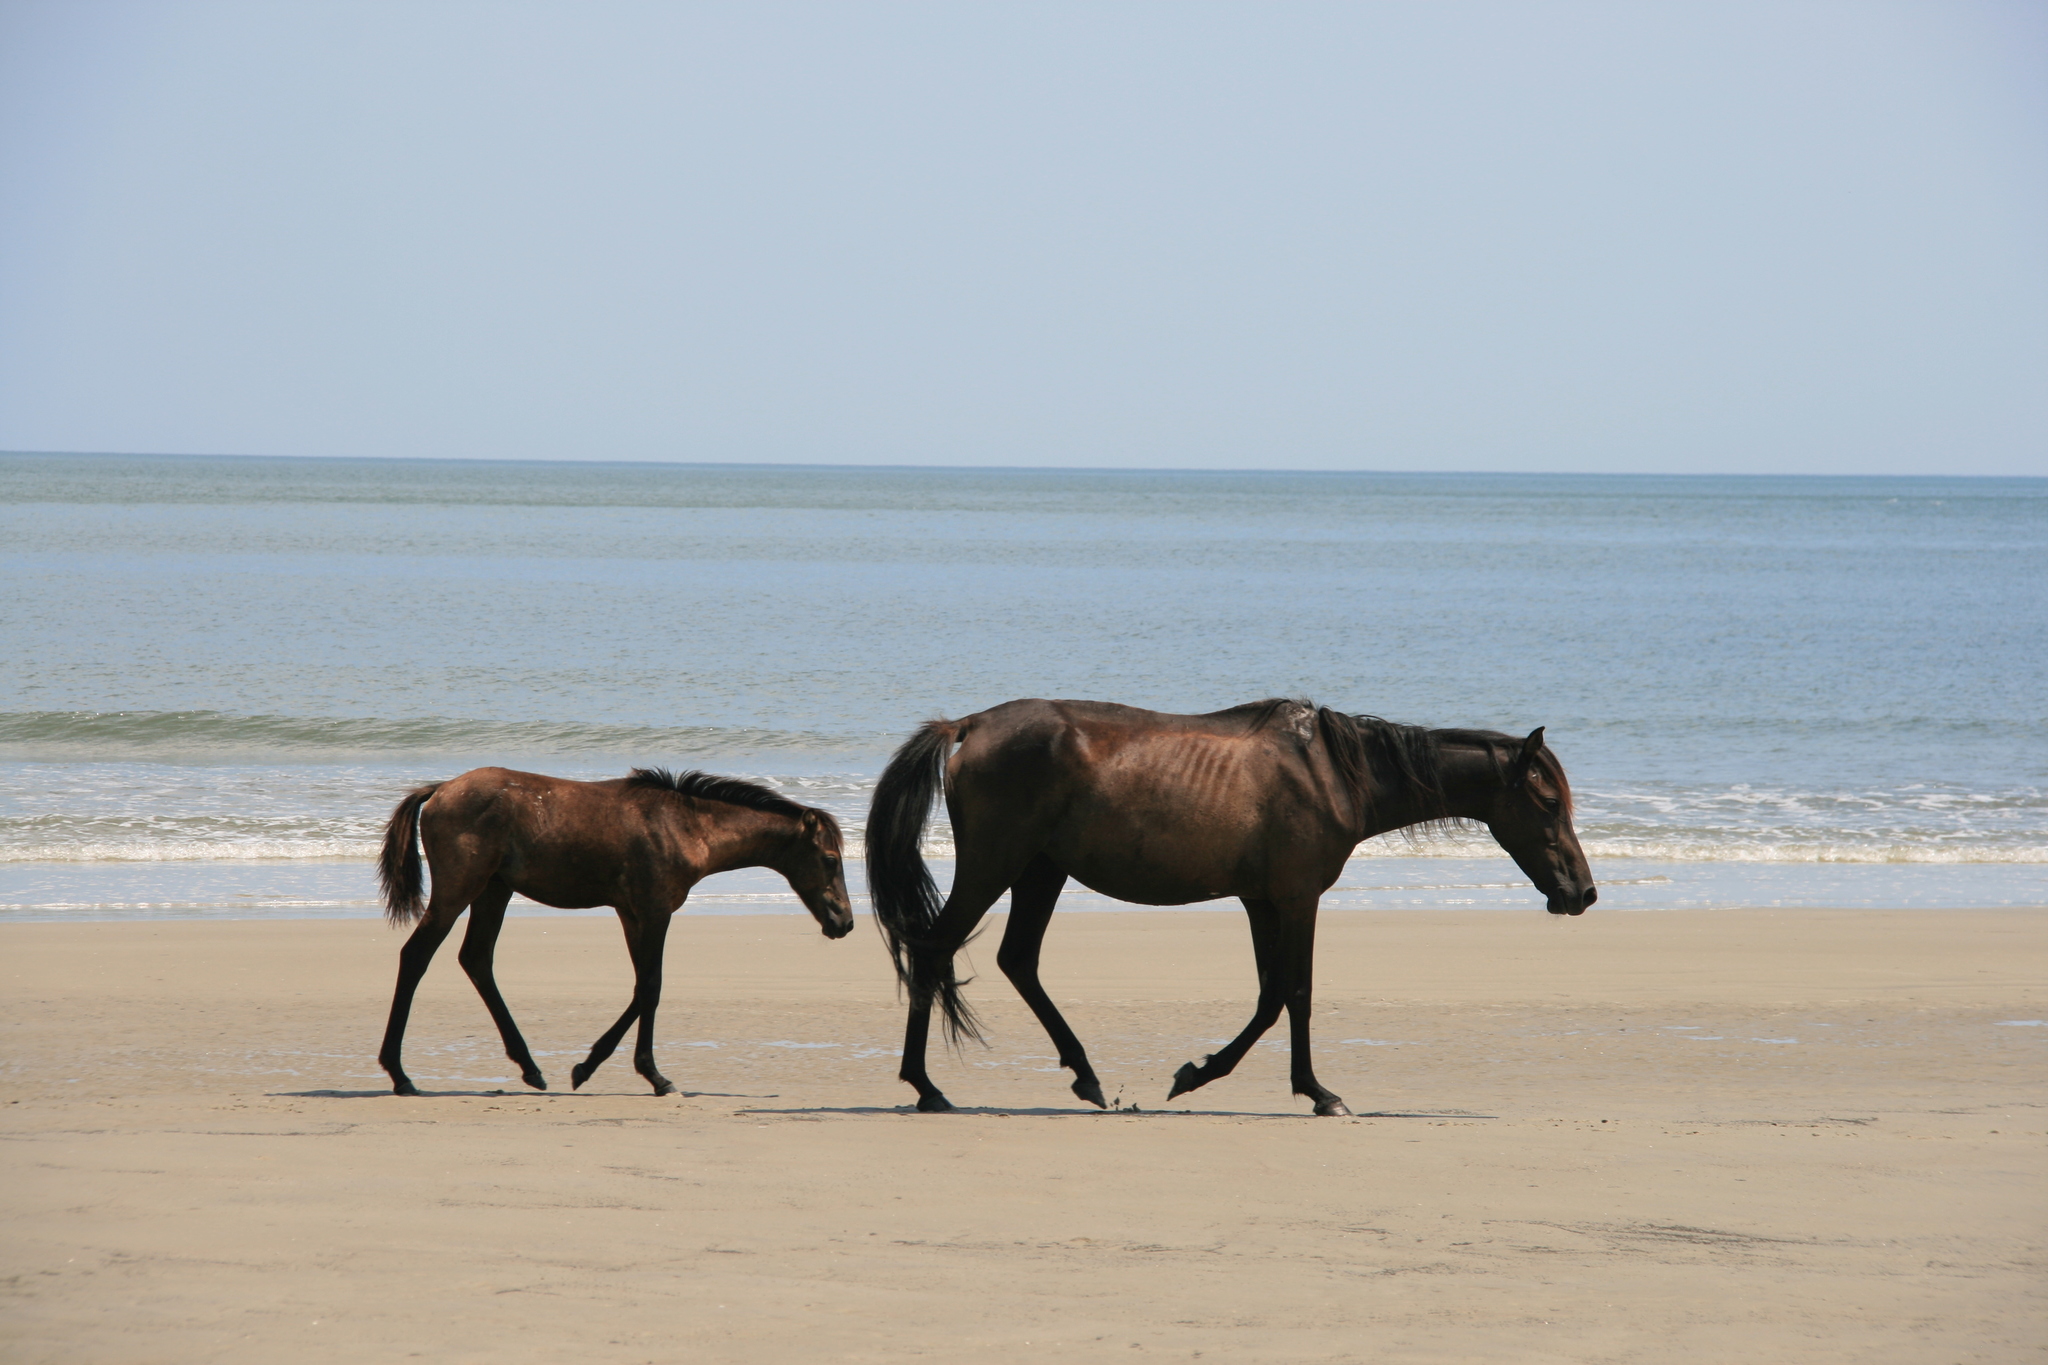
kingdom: Animalia
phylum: Chordata
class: Mammalia
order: Perissodactyla
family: Equidae
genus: Equus
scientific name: Equus caballus
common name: Horse
